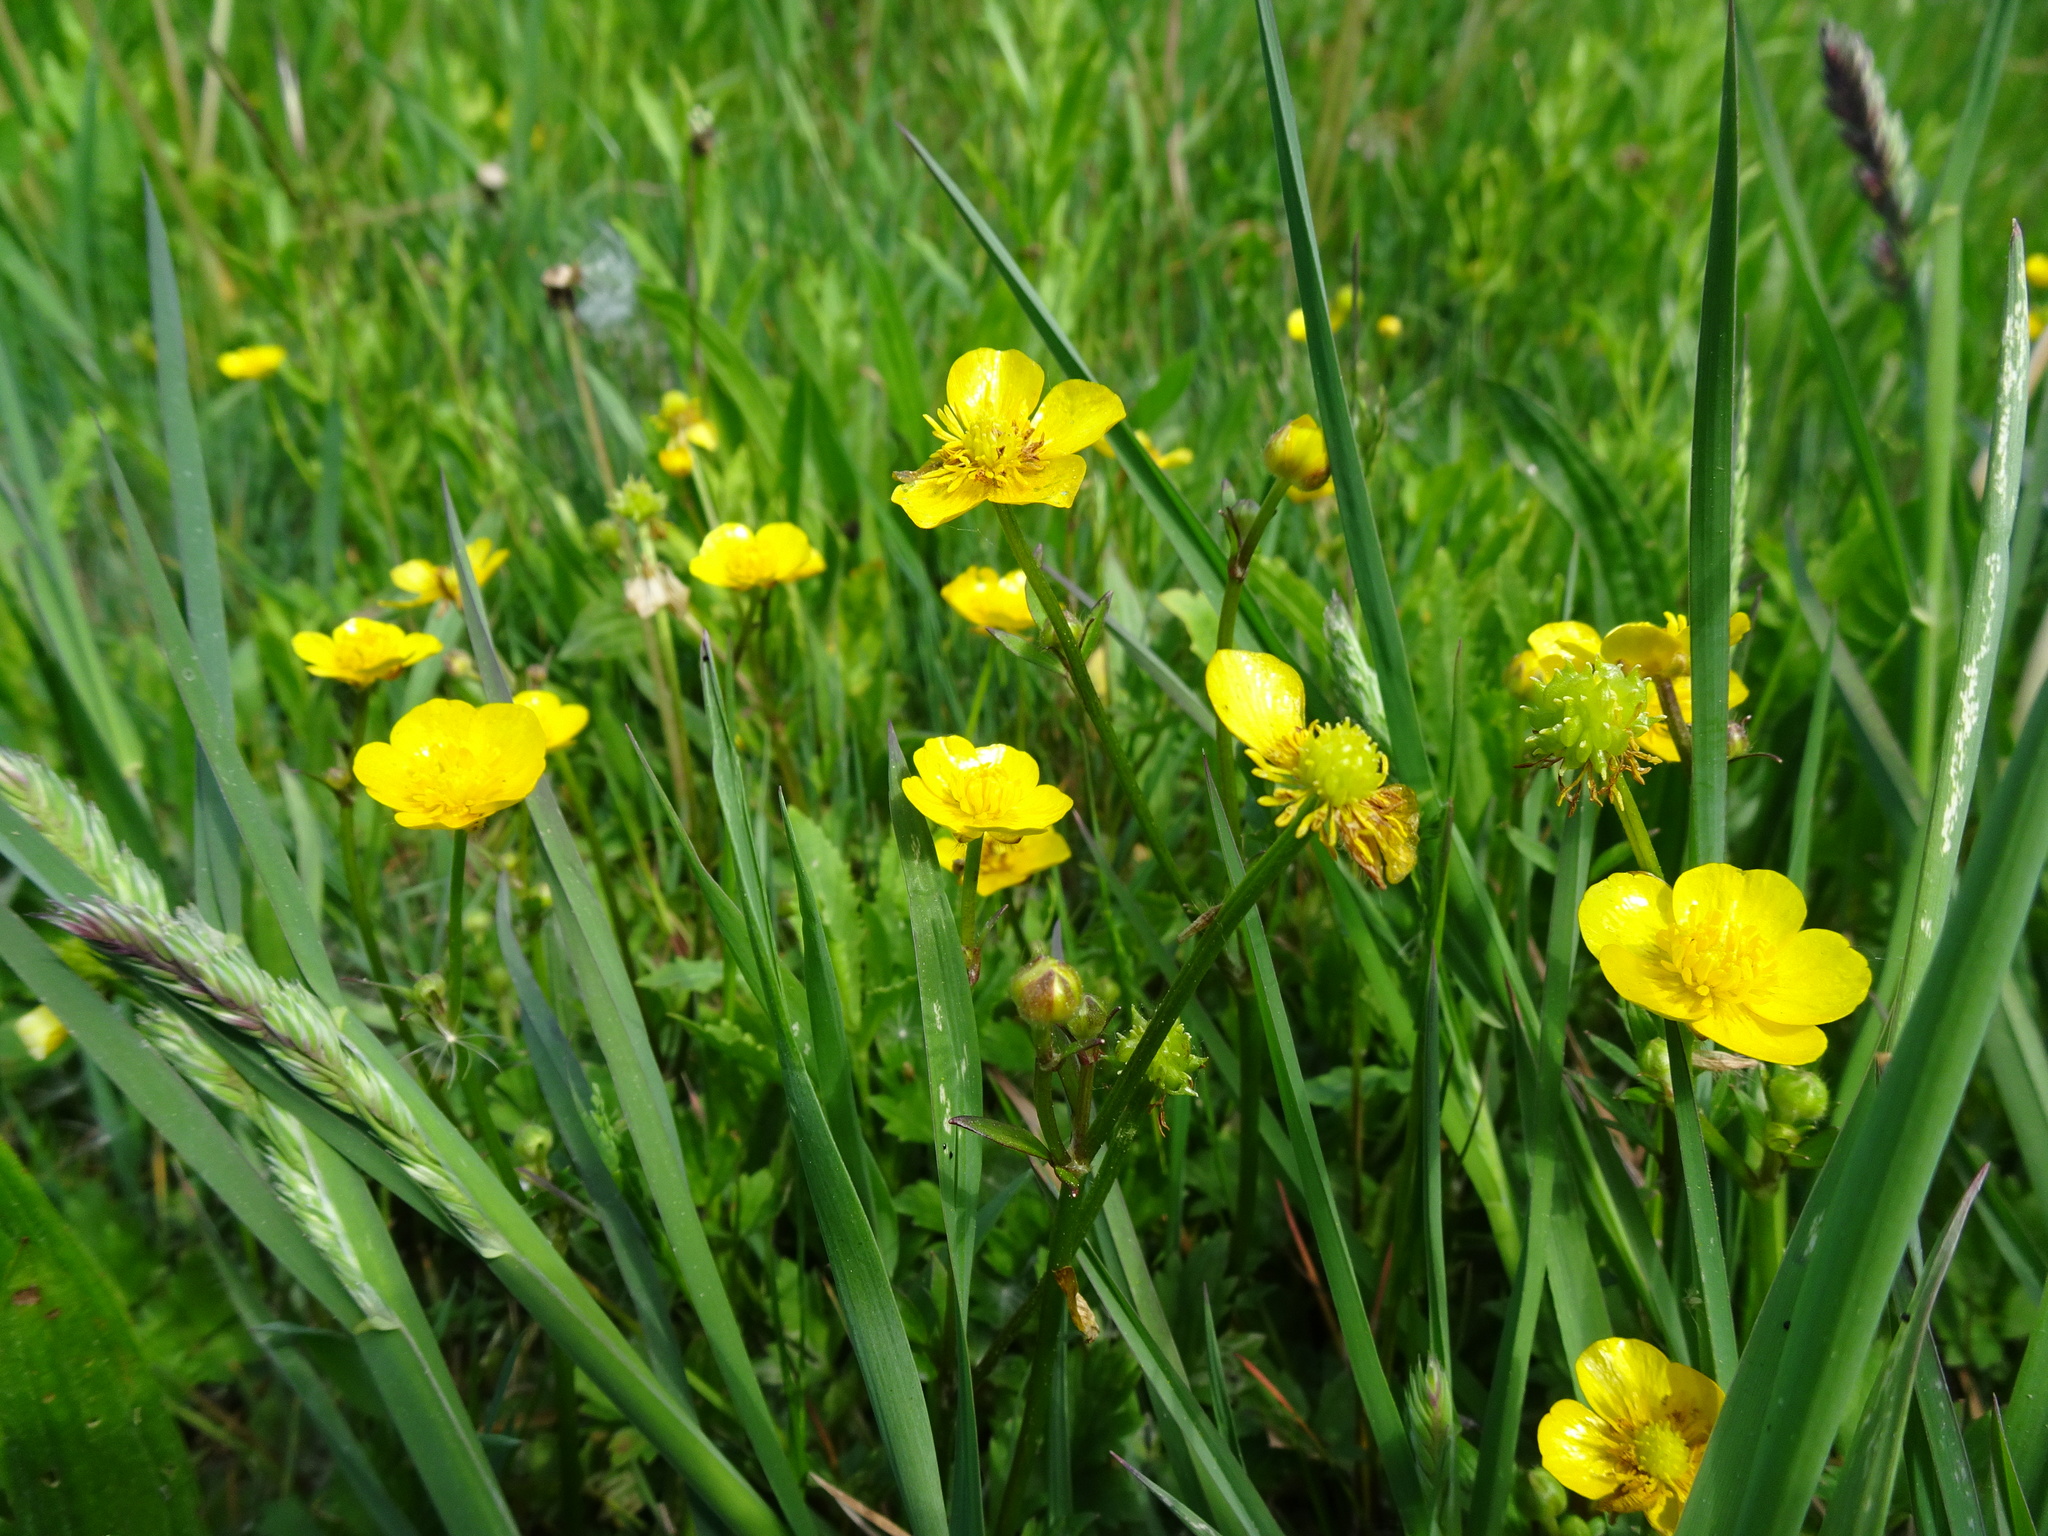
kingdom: Plantae
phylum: Tracheophyta
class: Magnoliopsida
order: Ranunculales
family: Ranunculaceae
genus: Ranunculus
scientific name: Ranunculus repens
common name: Creeping buttercup
